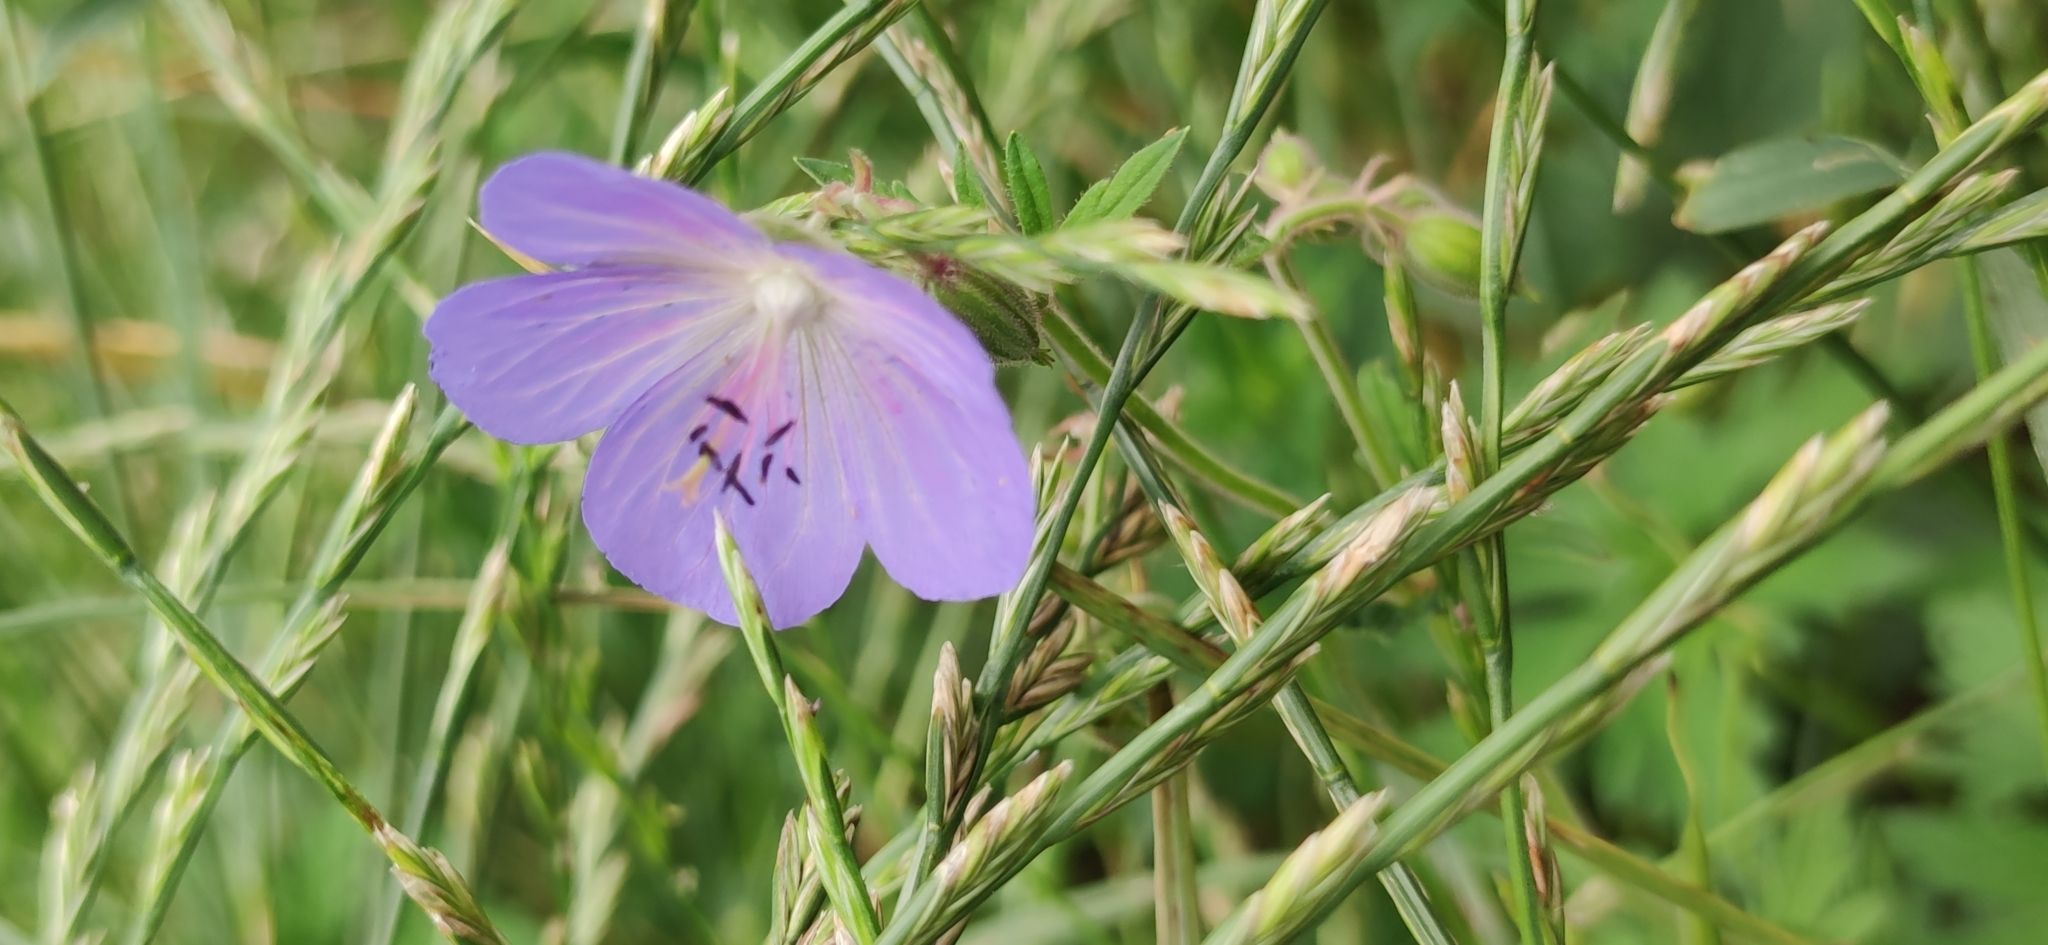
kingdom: Plantae
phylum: Tracheophyta
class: Magnoliopsida
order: Geraniales
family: Geraniaceae
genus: Geranium
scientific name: Geranium pratense
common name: Meadow crane's-bill
